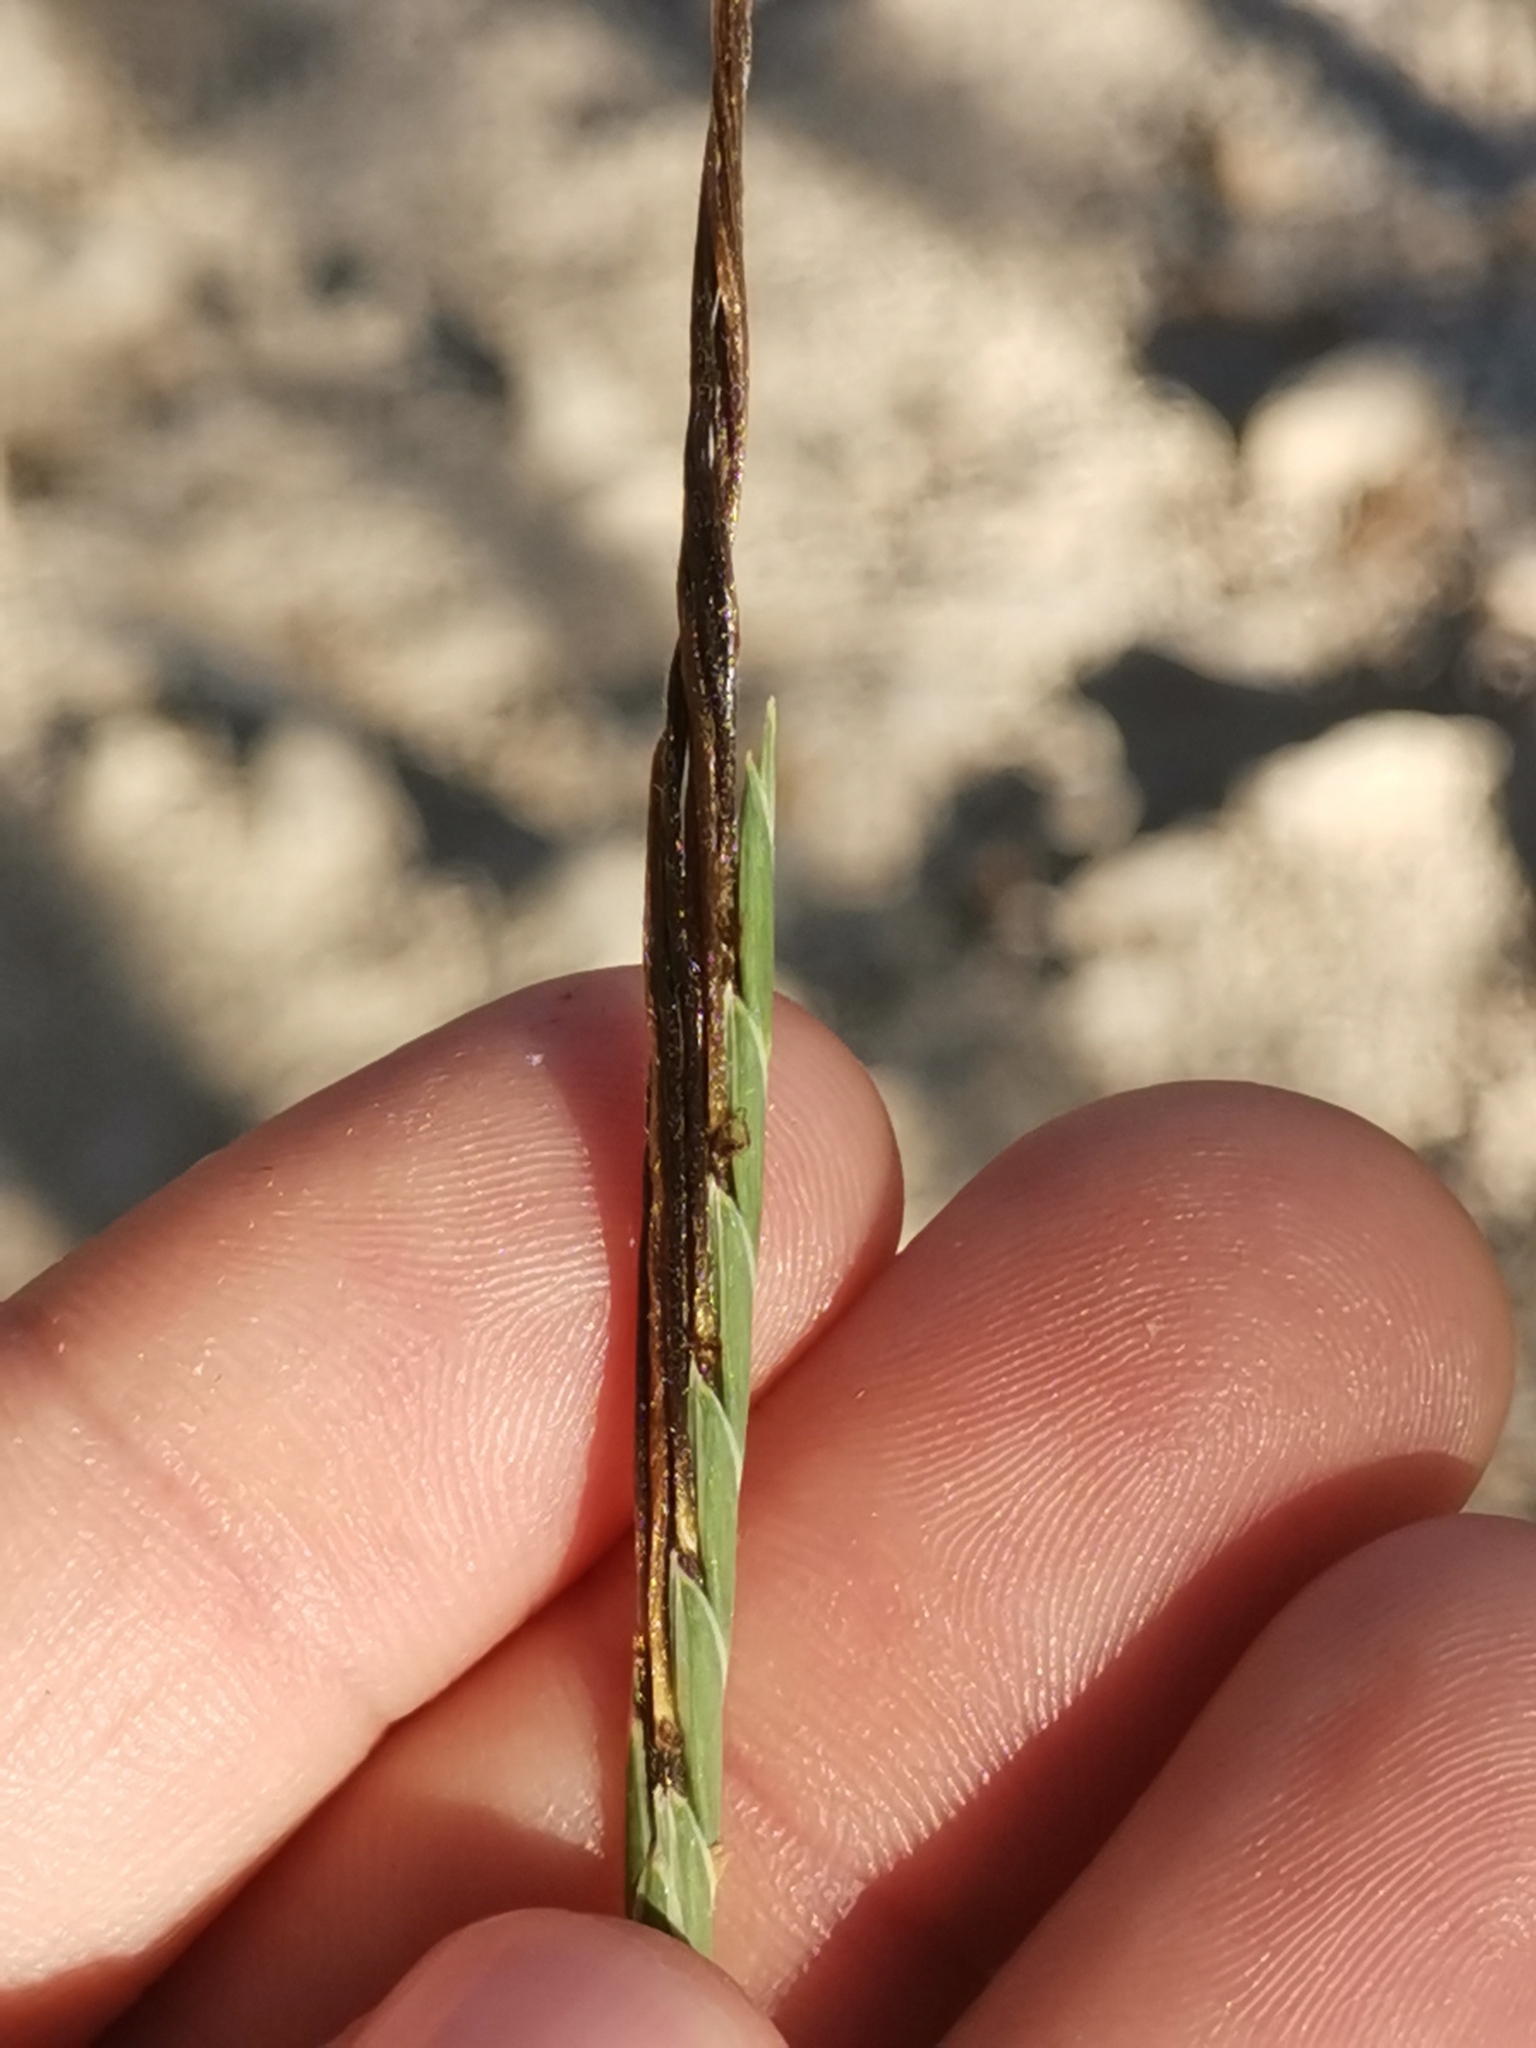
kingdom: Plantae
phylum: Tracheophyta
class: Liliopsida
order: Poales
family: Poaceae
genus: Heteropogon
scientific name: Heteropogon contortus
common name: Tanglehead
